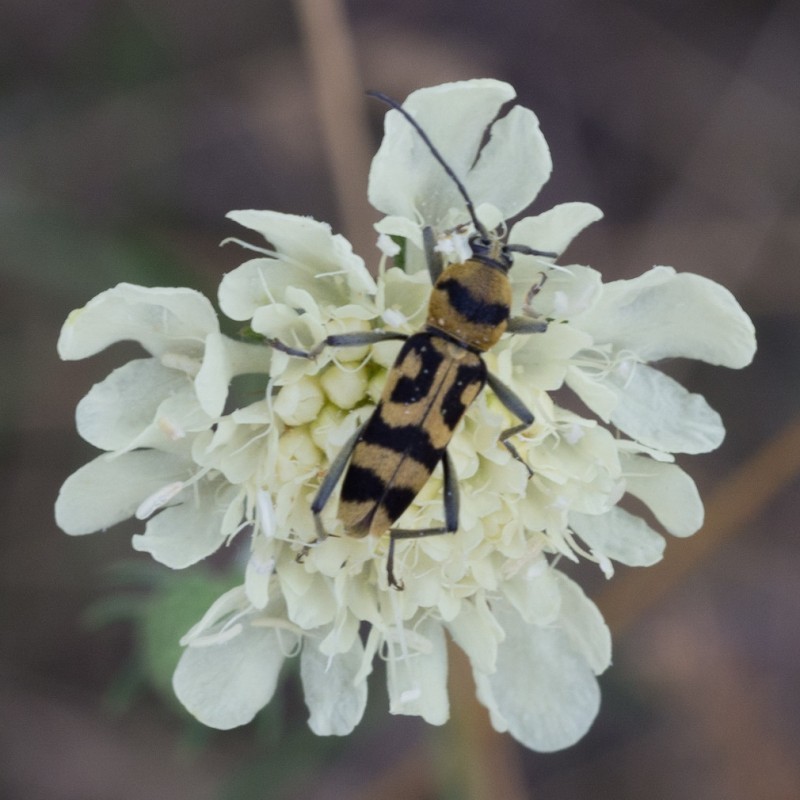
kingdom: Animalia
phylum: Arthropoda
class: Insecta
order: Coleoptera
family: Cerambycidae
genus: Chlorophorus
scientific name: Chlorophorus varius
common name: Grape wood borer
